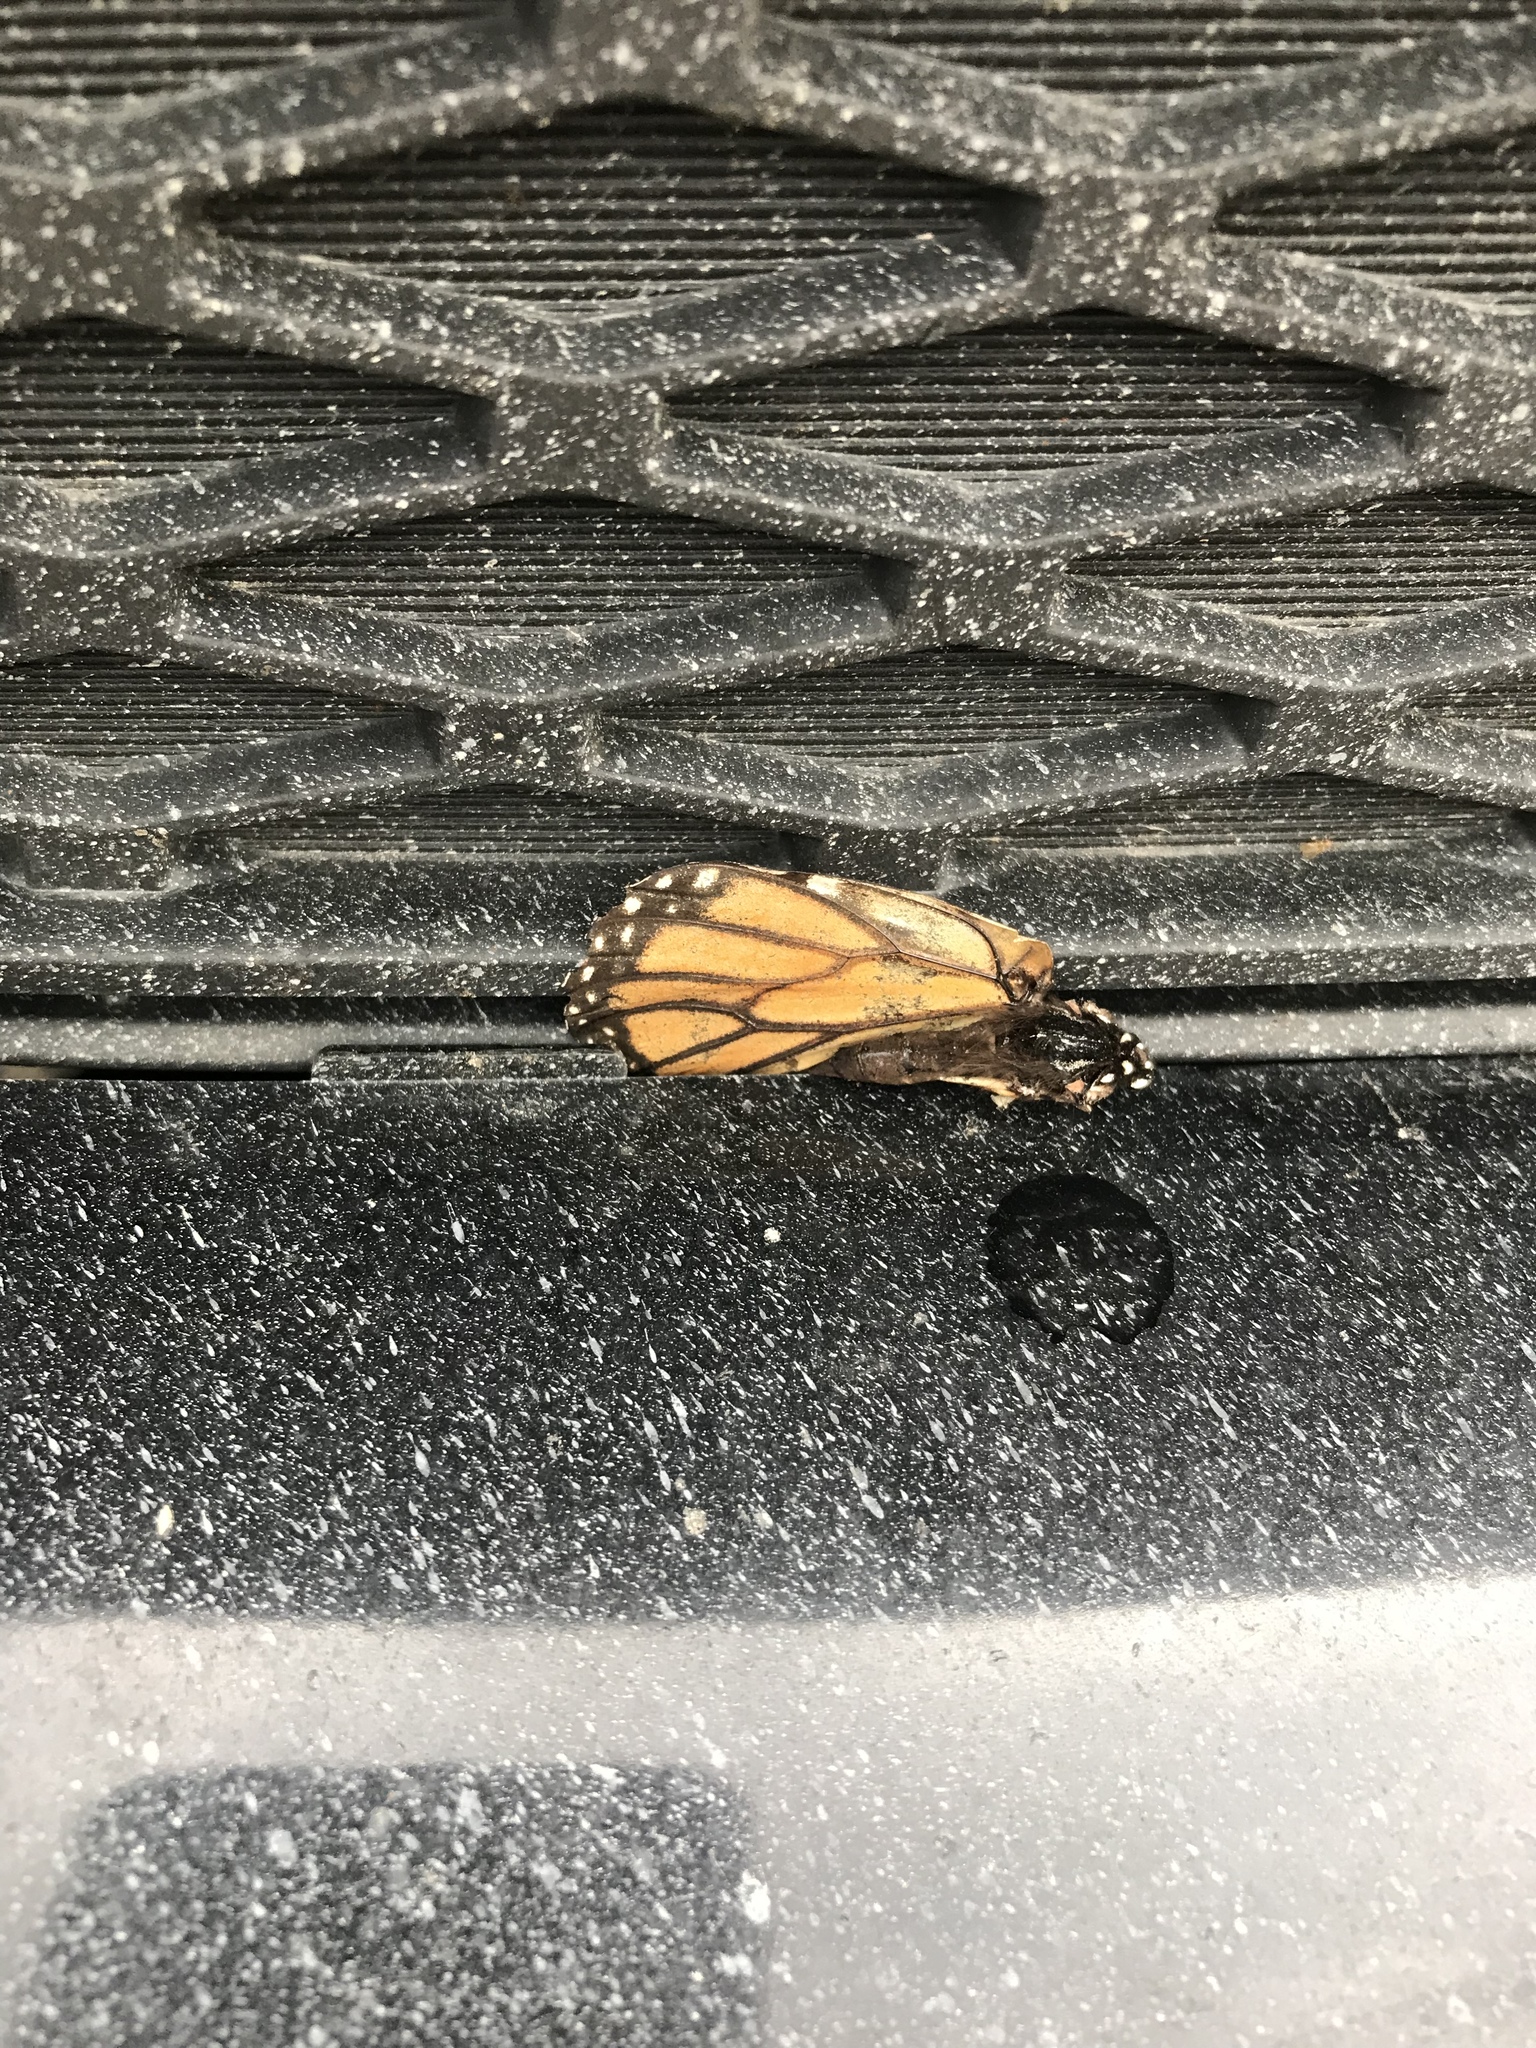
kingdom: Animalia
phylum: Arthropoda
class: Insecta
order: Lepidoptera
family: Nymphalidae
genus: Danaus
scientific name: Danaus plexippus
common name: Monarch
